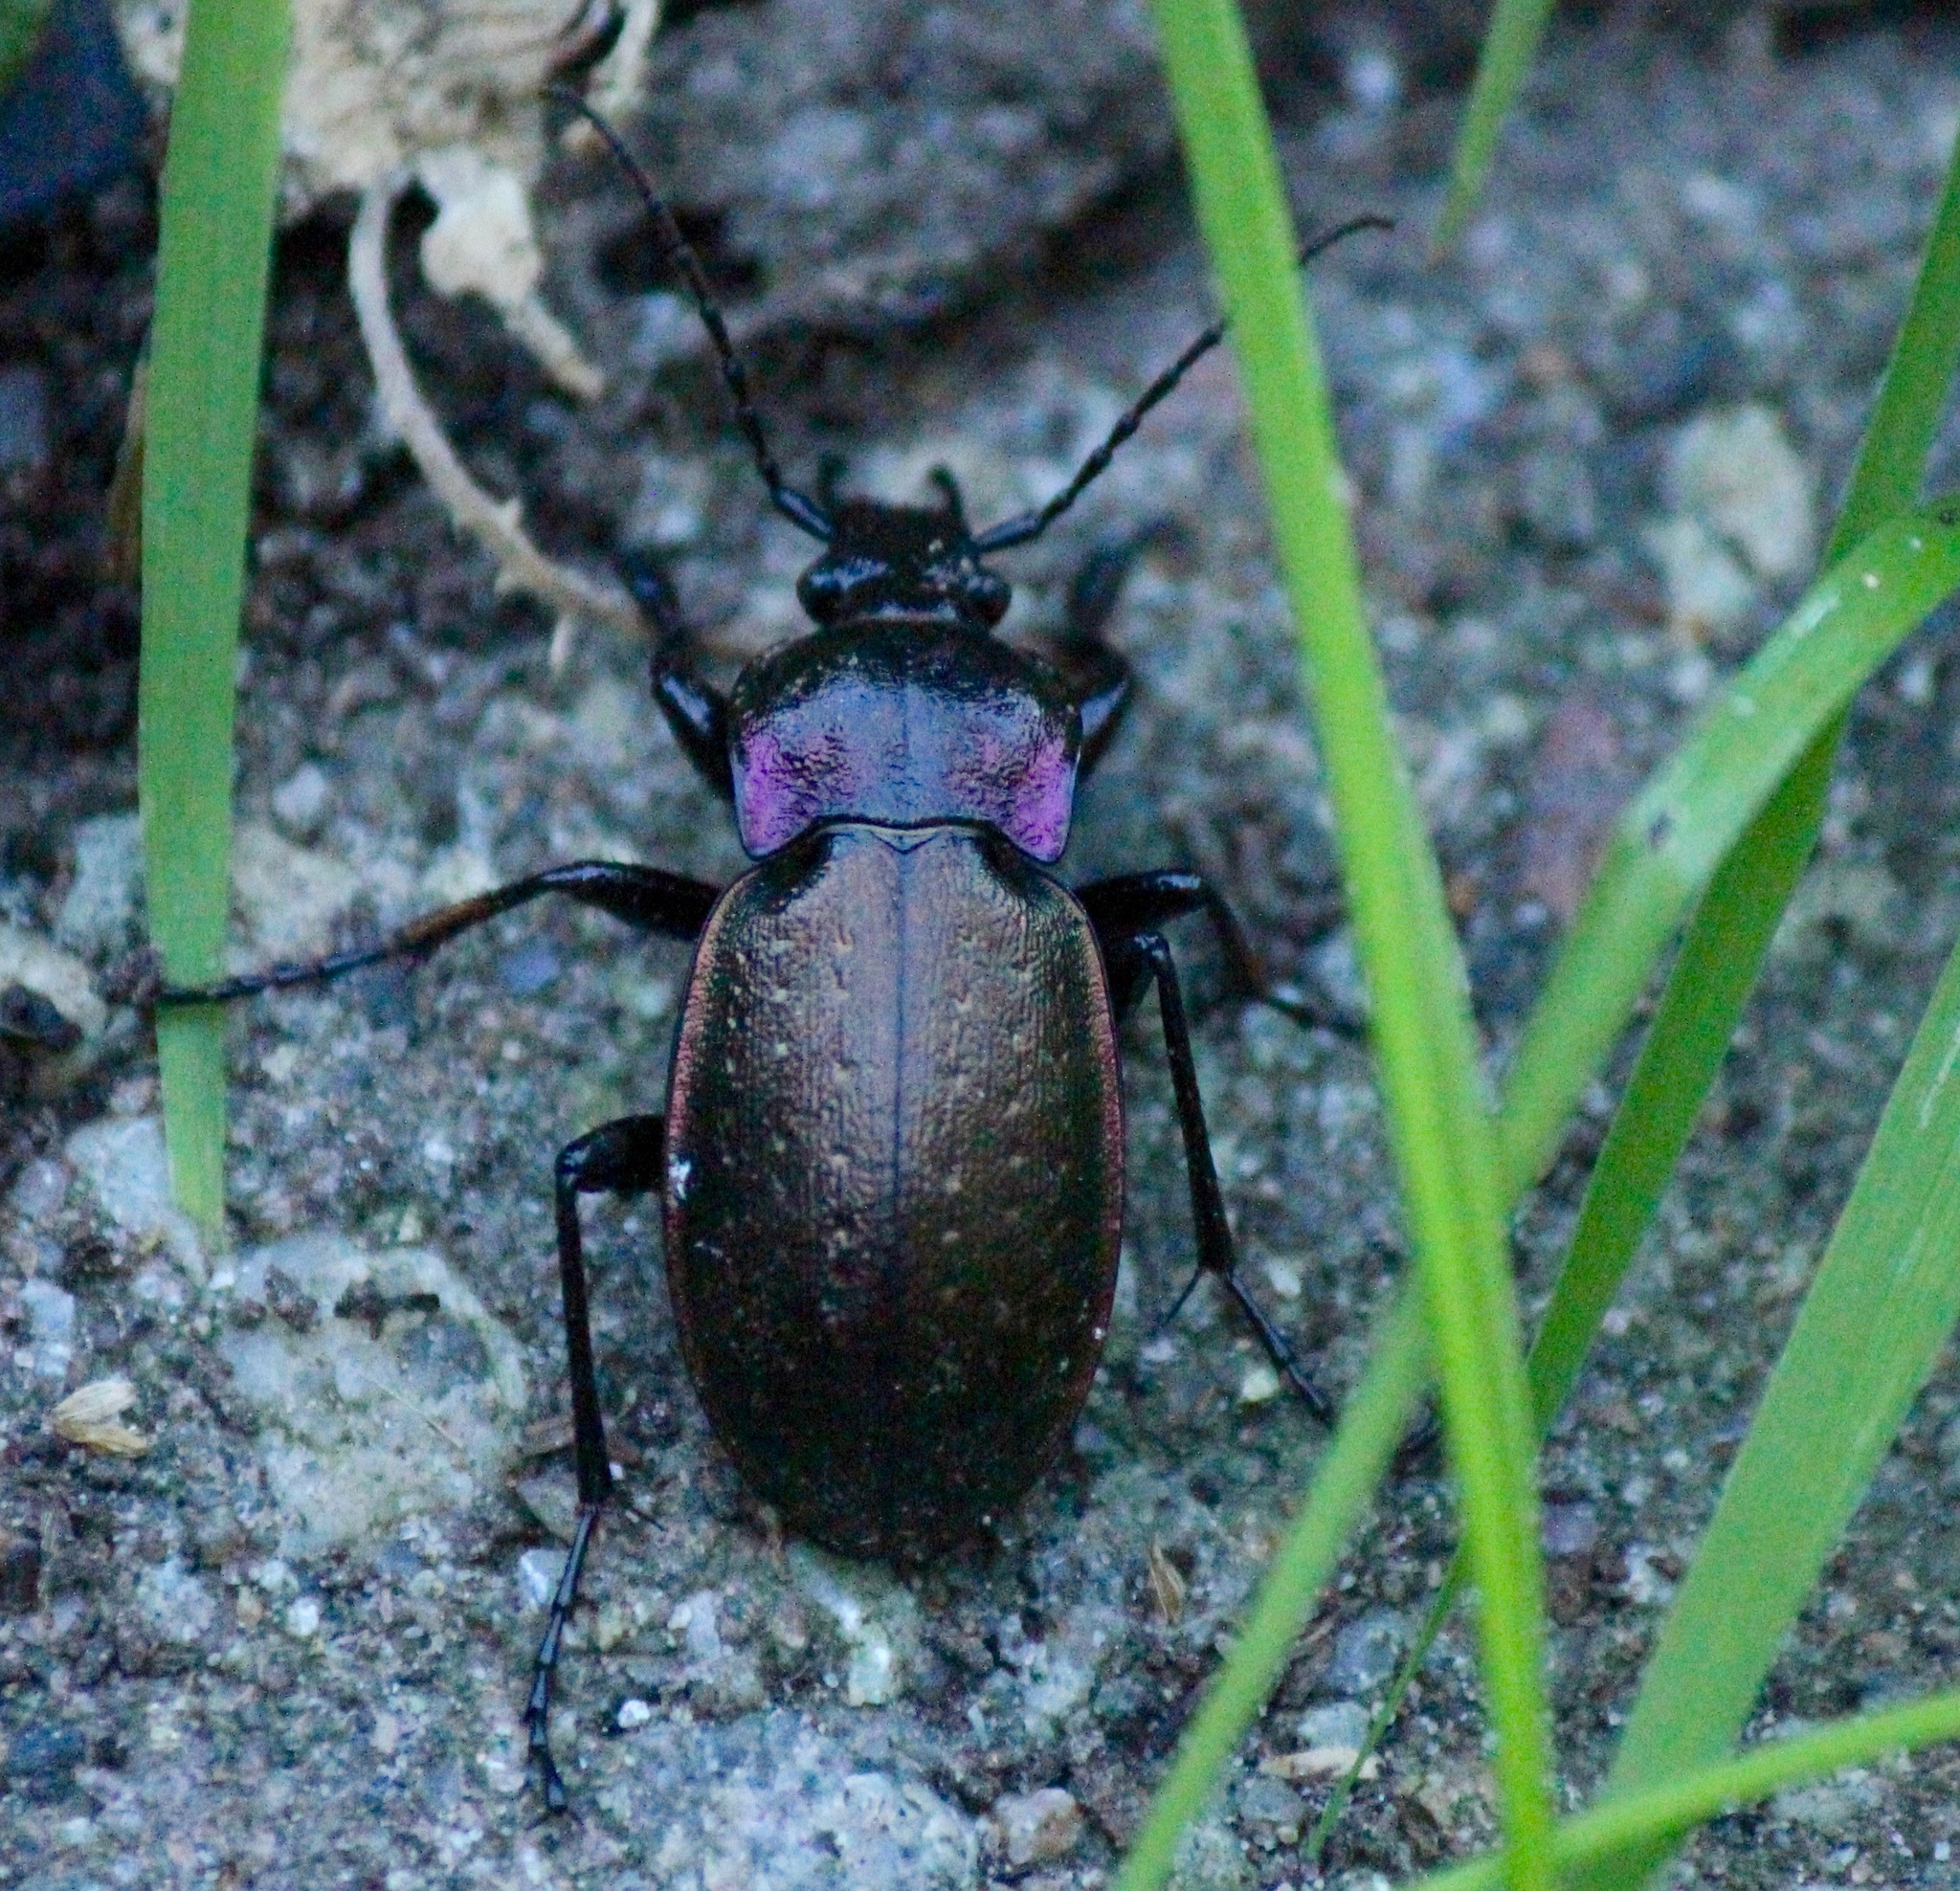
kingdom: Animalia
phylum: Arthropoda
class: Insecta
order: Coleoptera
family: Carabidae
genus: Carabus
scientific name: Carabus nemoralis
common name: European ground beetle
